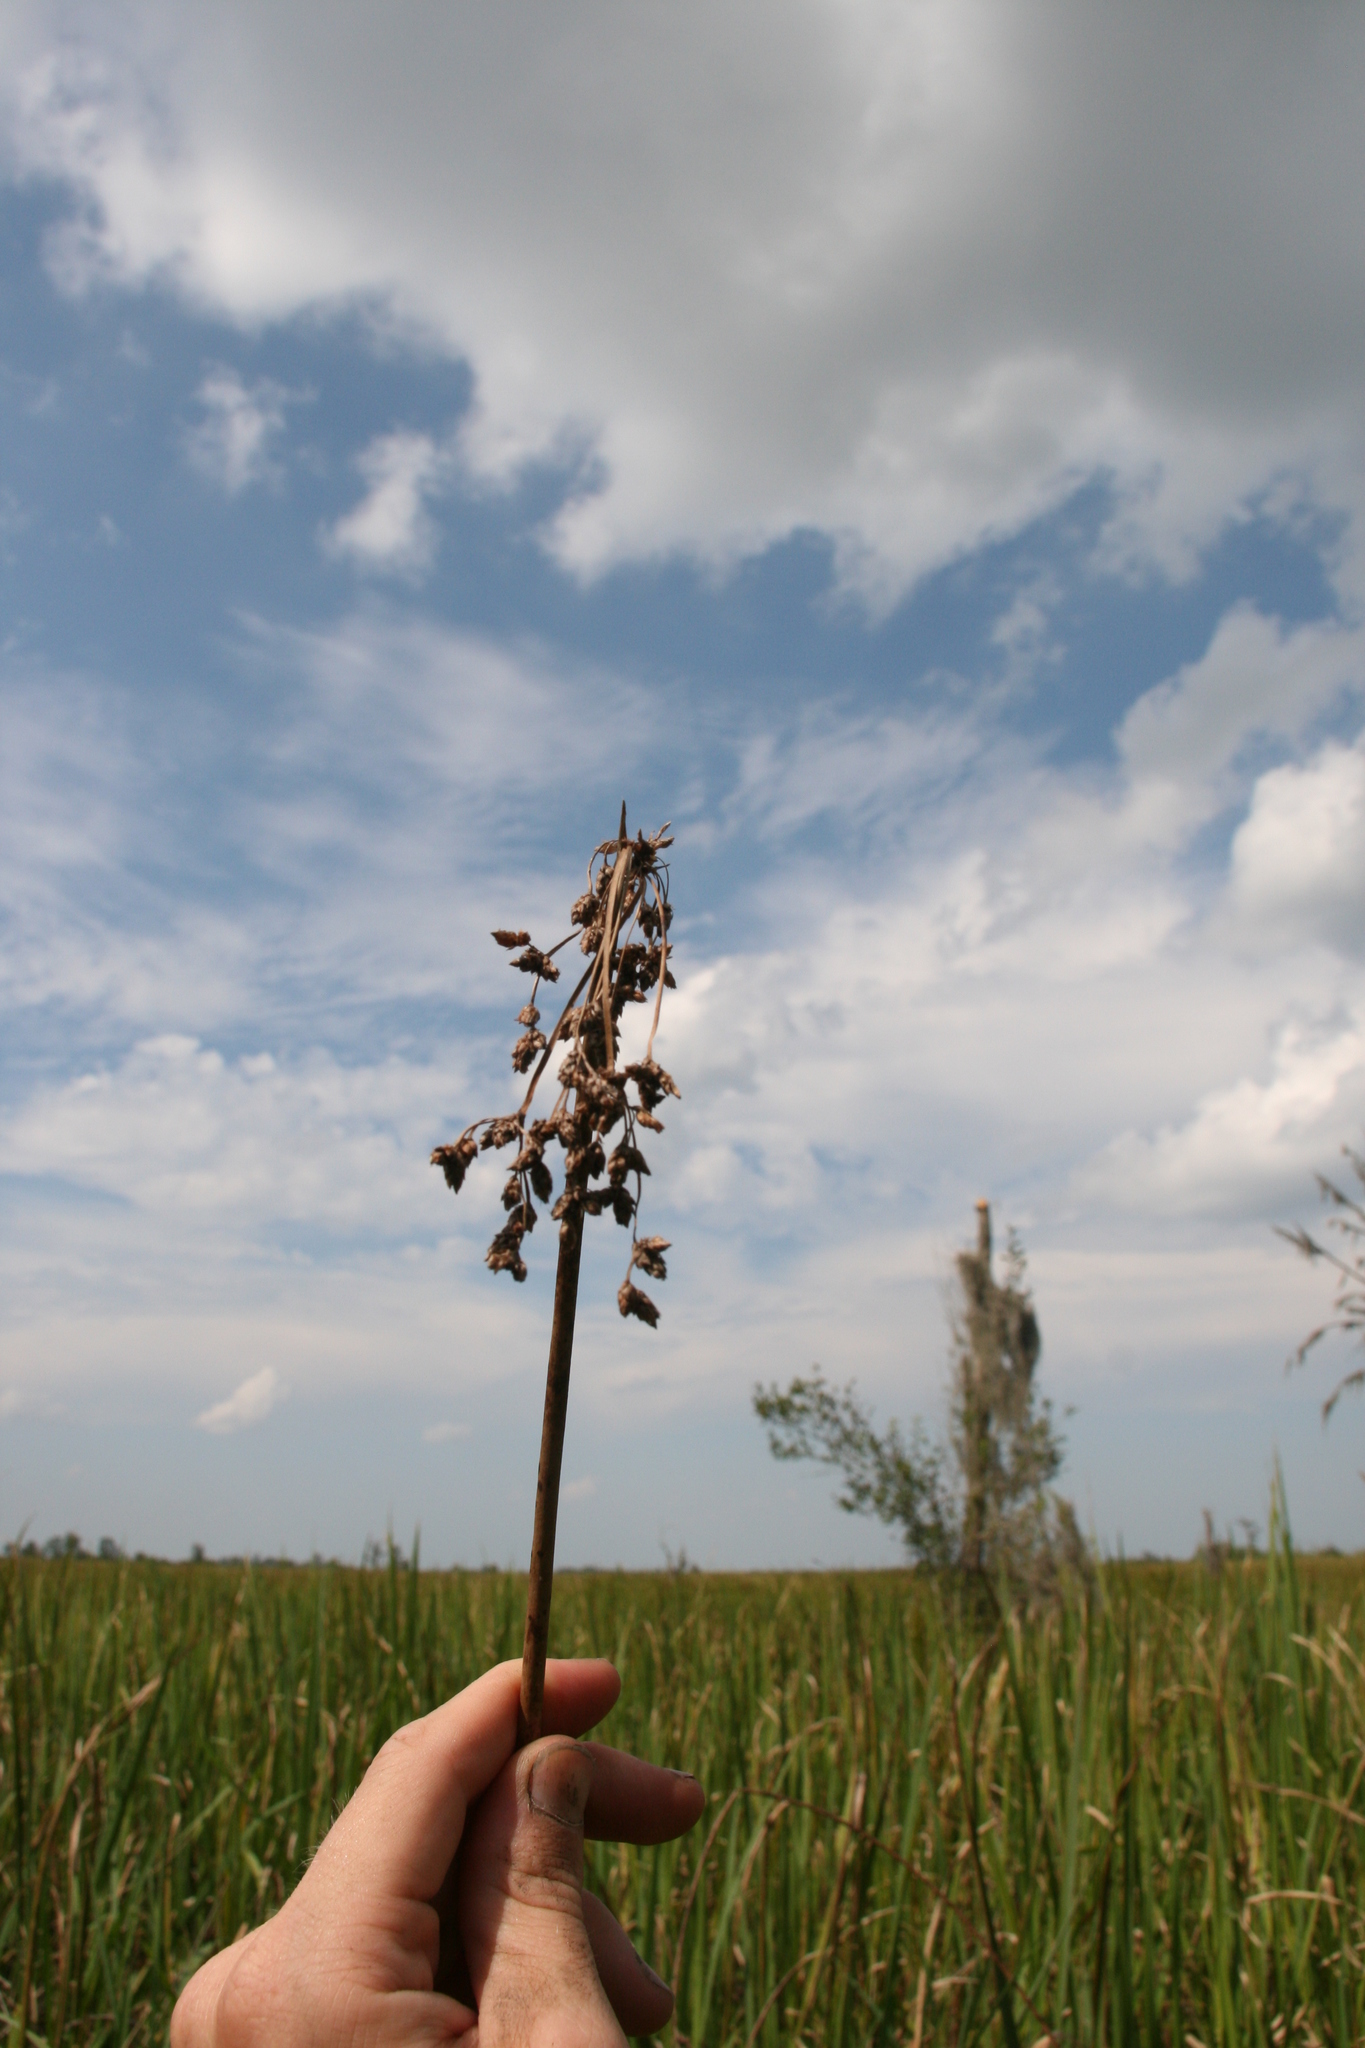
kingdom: Plantae
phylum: Tracheophyta
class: Liliopsida
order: Poales
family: Cyperaceae
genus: Schoenoplectus
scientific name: Schoenoplectus tabernaemontani
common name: Grey club-rush
